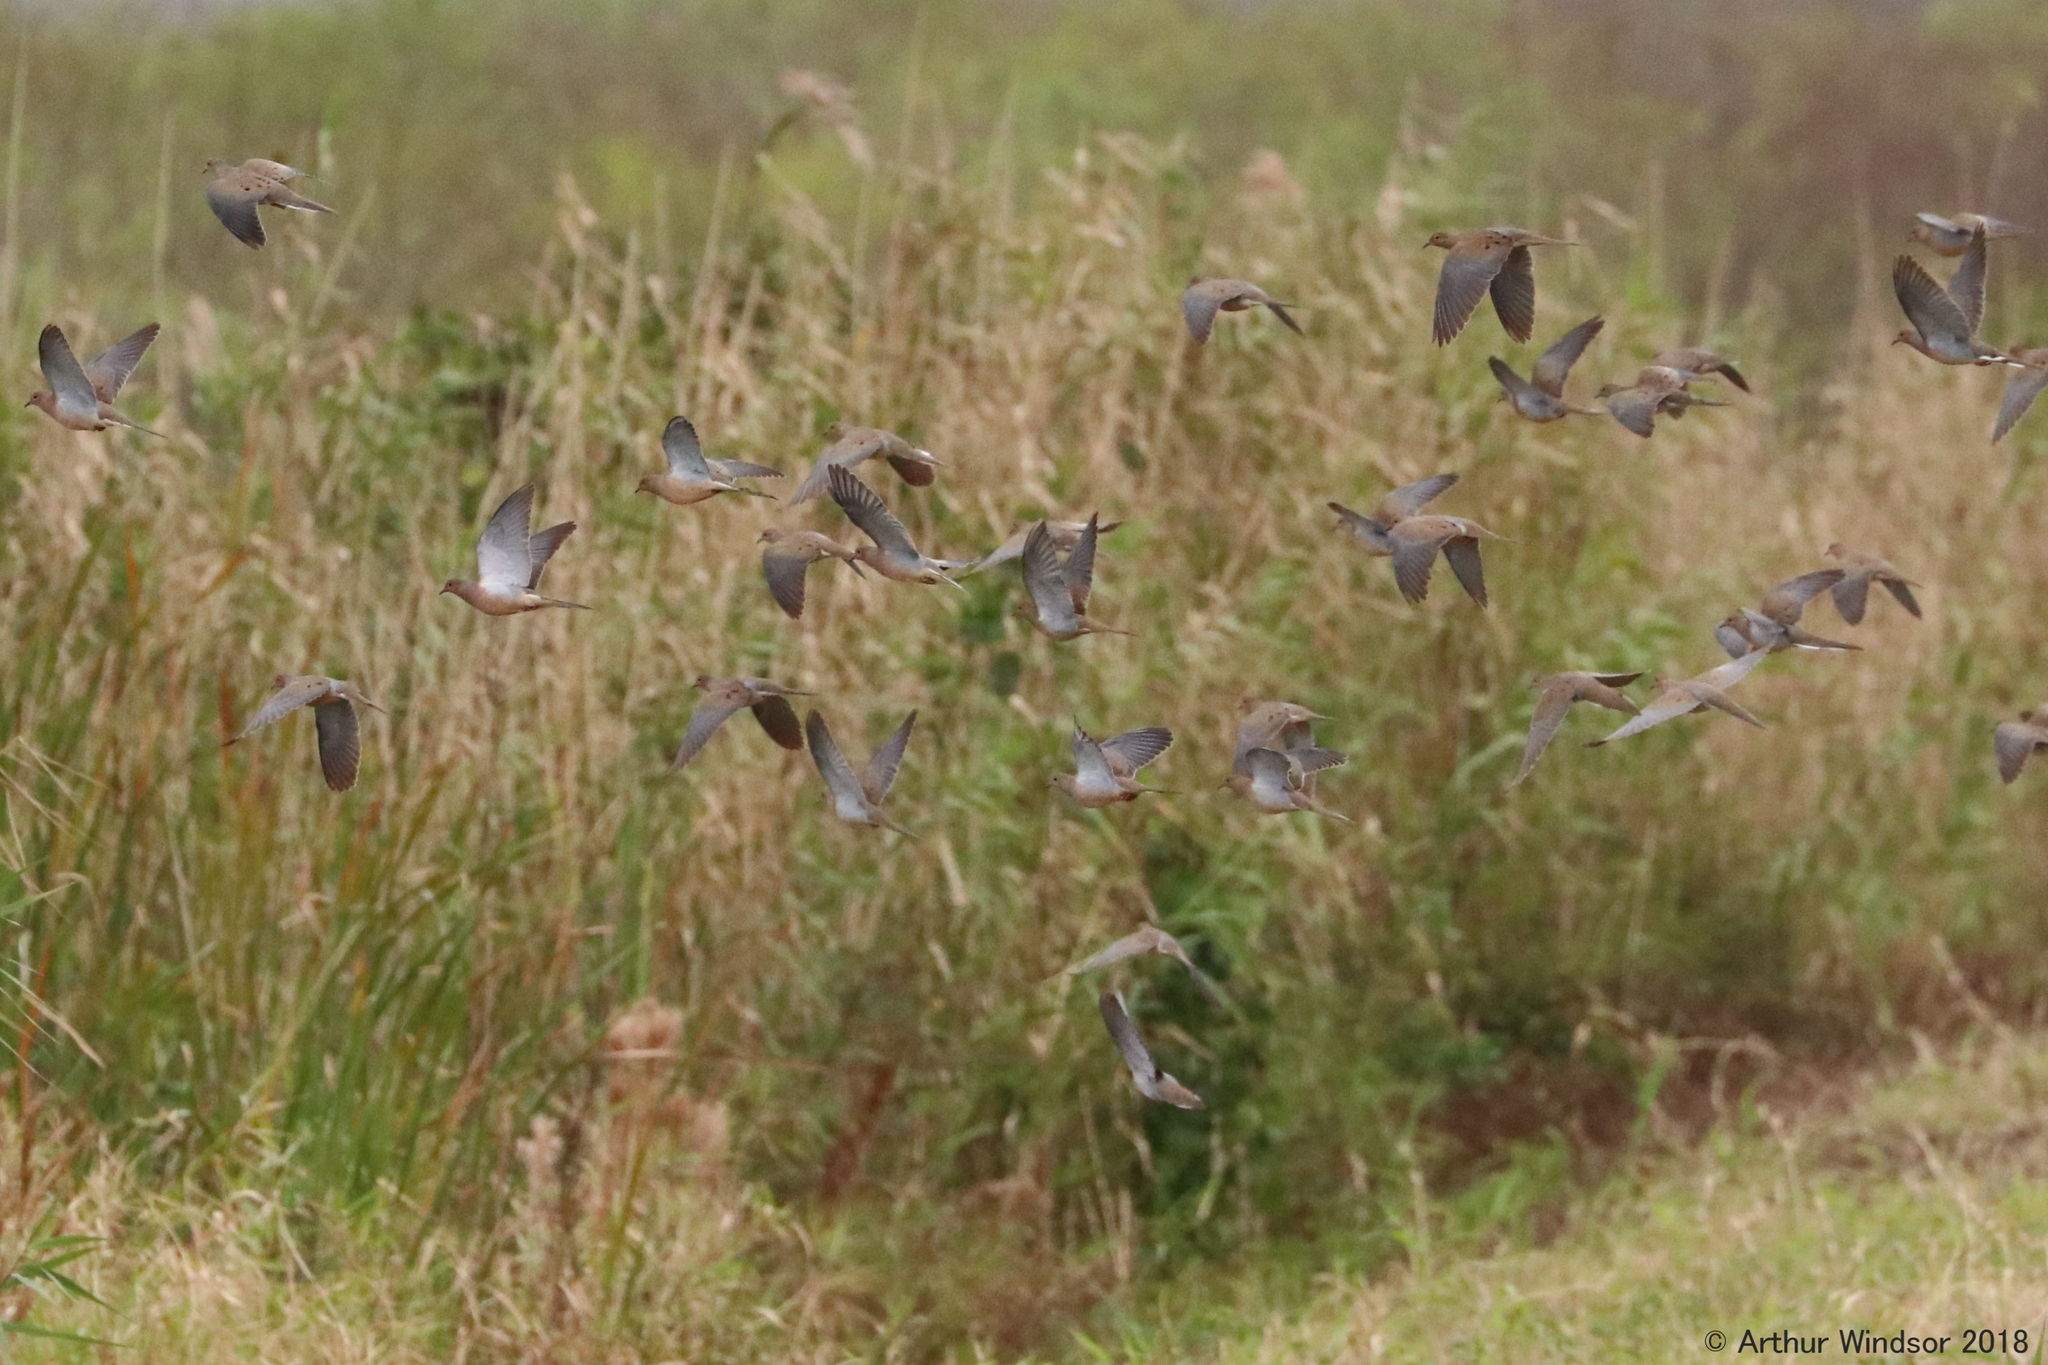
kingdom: Animalia
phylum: Chordata
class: Aves
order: Columbiformes
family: Columbidae
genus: Zenaida
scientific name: Zenaida macroura
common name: Mourning dove
